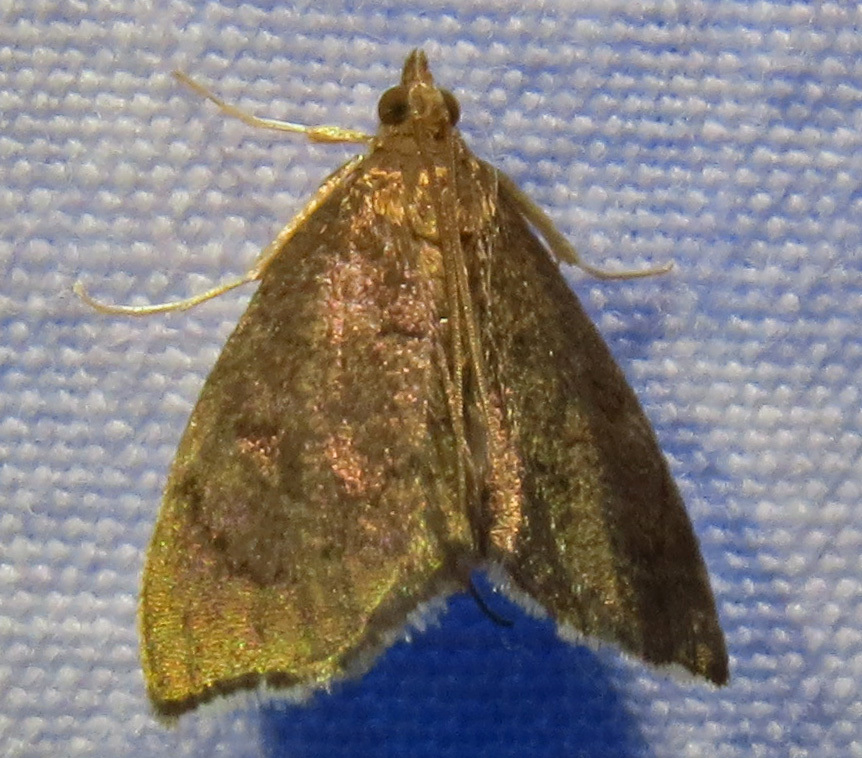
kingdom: Animalia
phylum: Arthropoda
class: Insecta
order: Lepidoptera
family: Crambidae
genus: Perispasta
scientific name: Perispasta caeculalis
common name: Titian peale's moth
